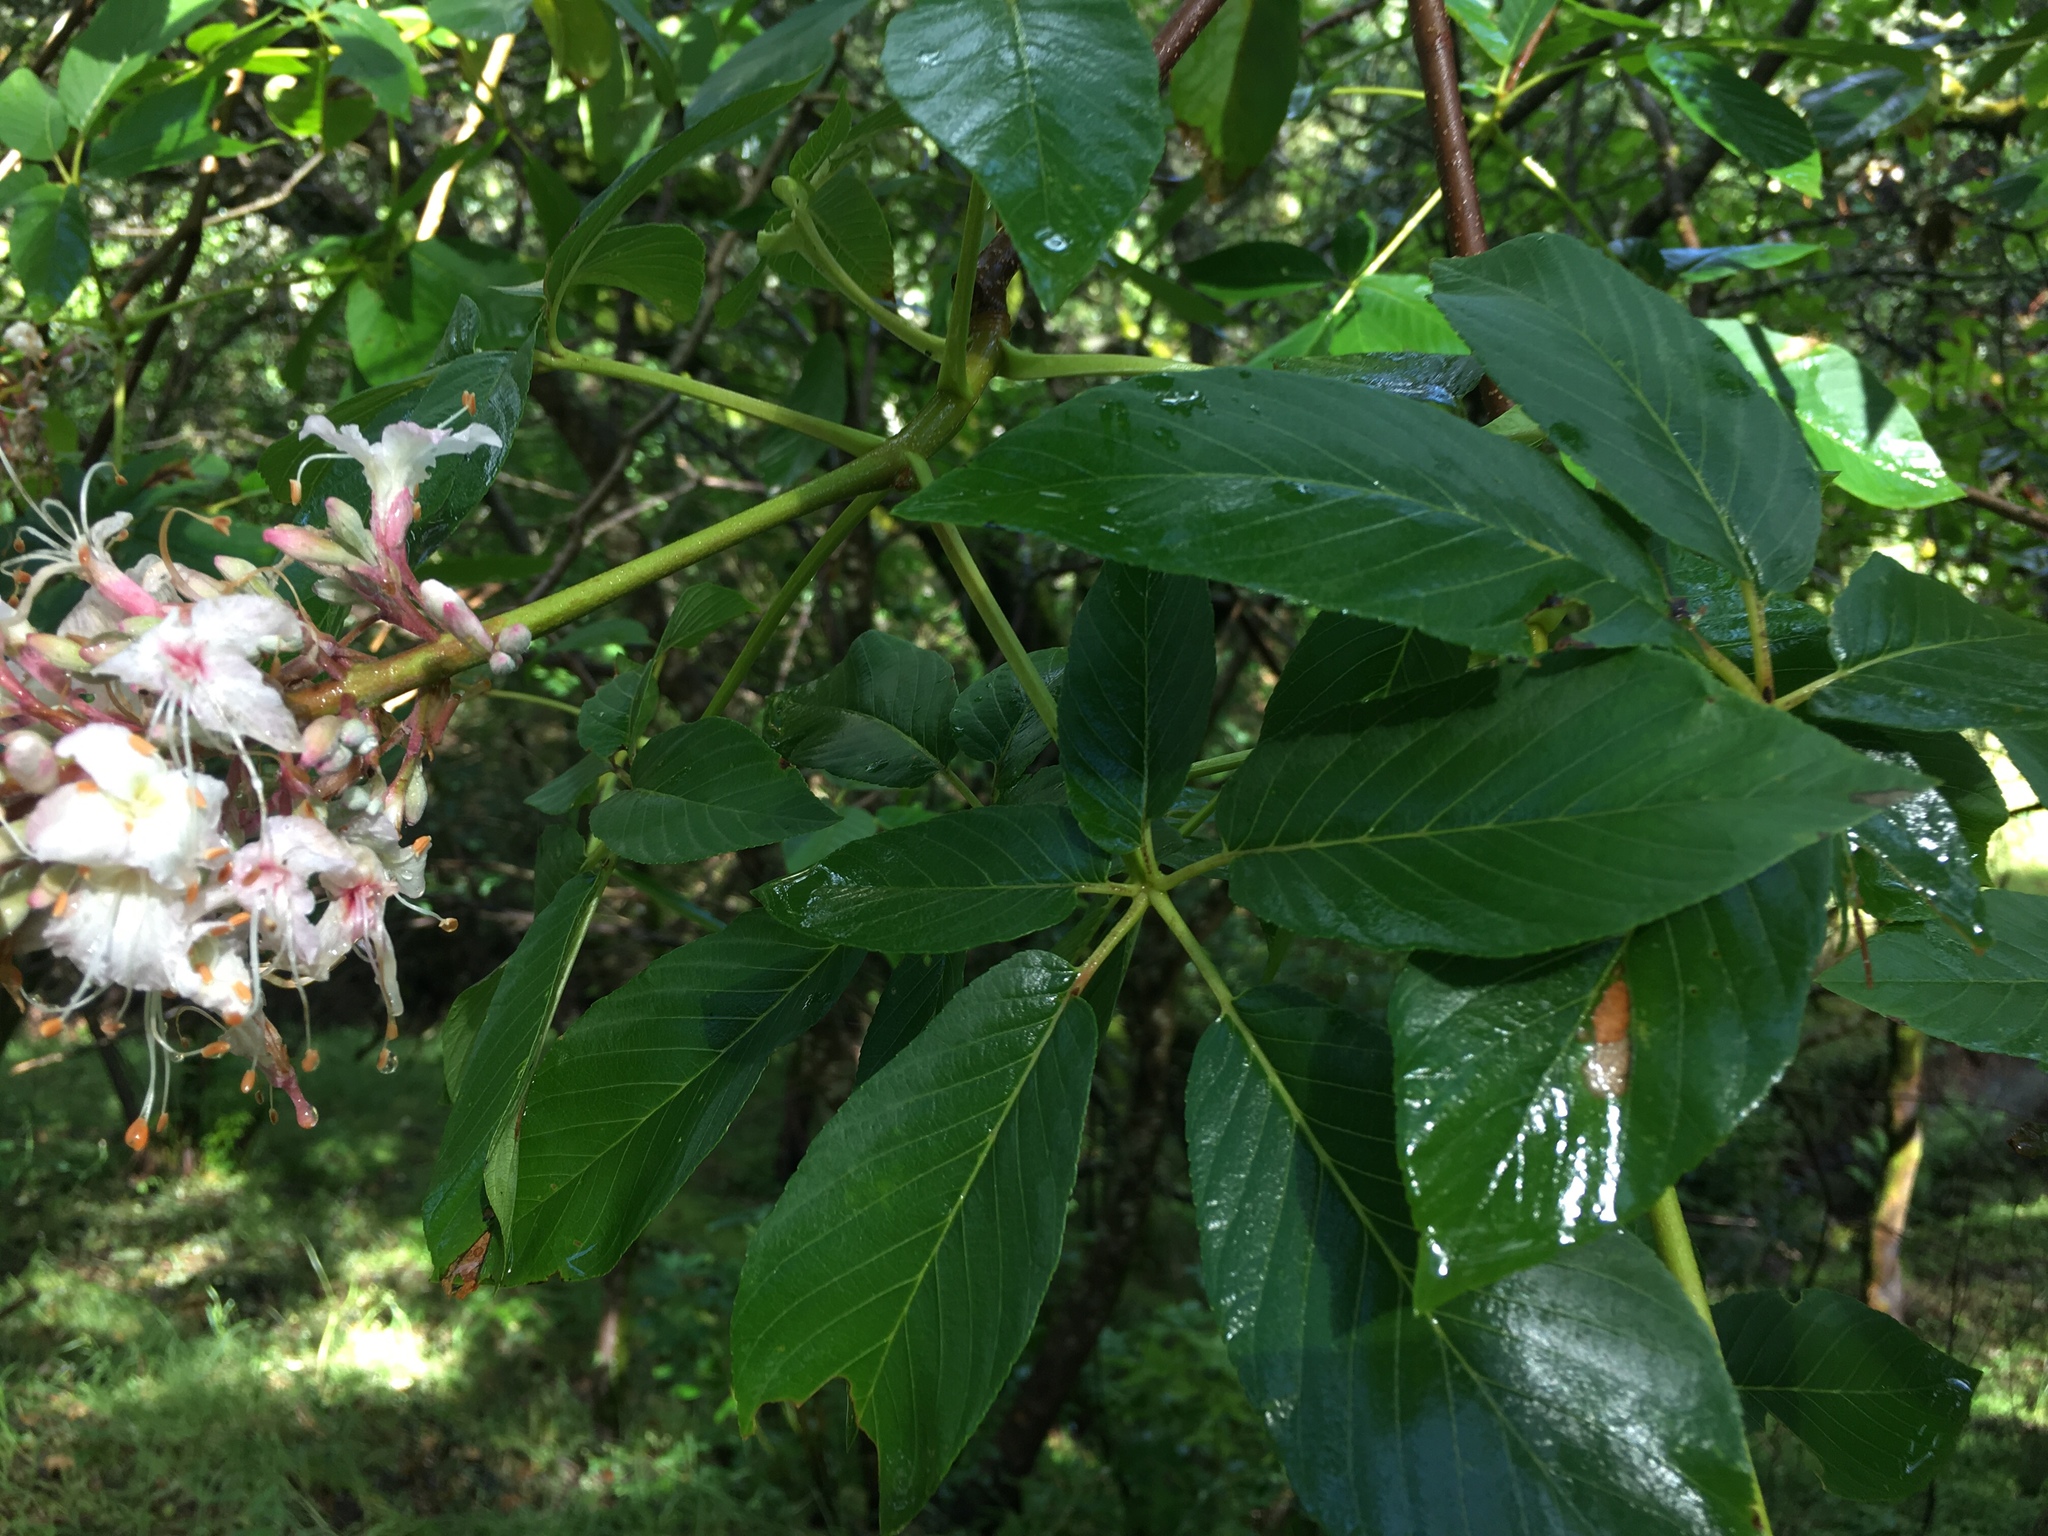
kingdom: Plantae
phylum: Tracheophyta
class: Magnoliopsida
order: Sapindales
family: Sapindaceae
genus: Aesculus
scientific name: Aesculus californica
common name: California buckeye
